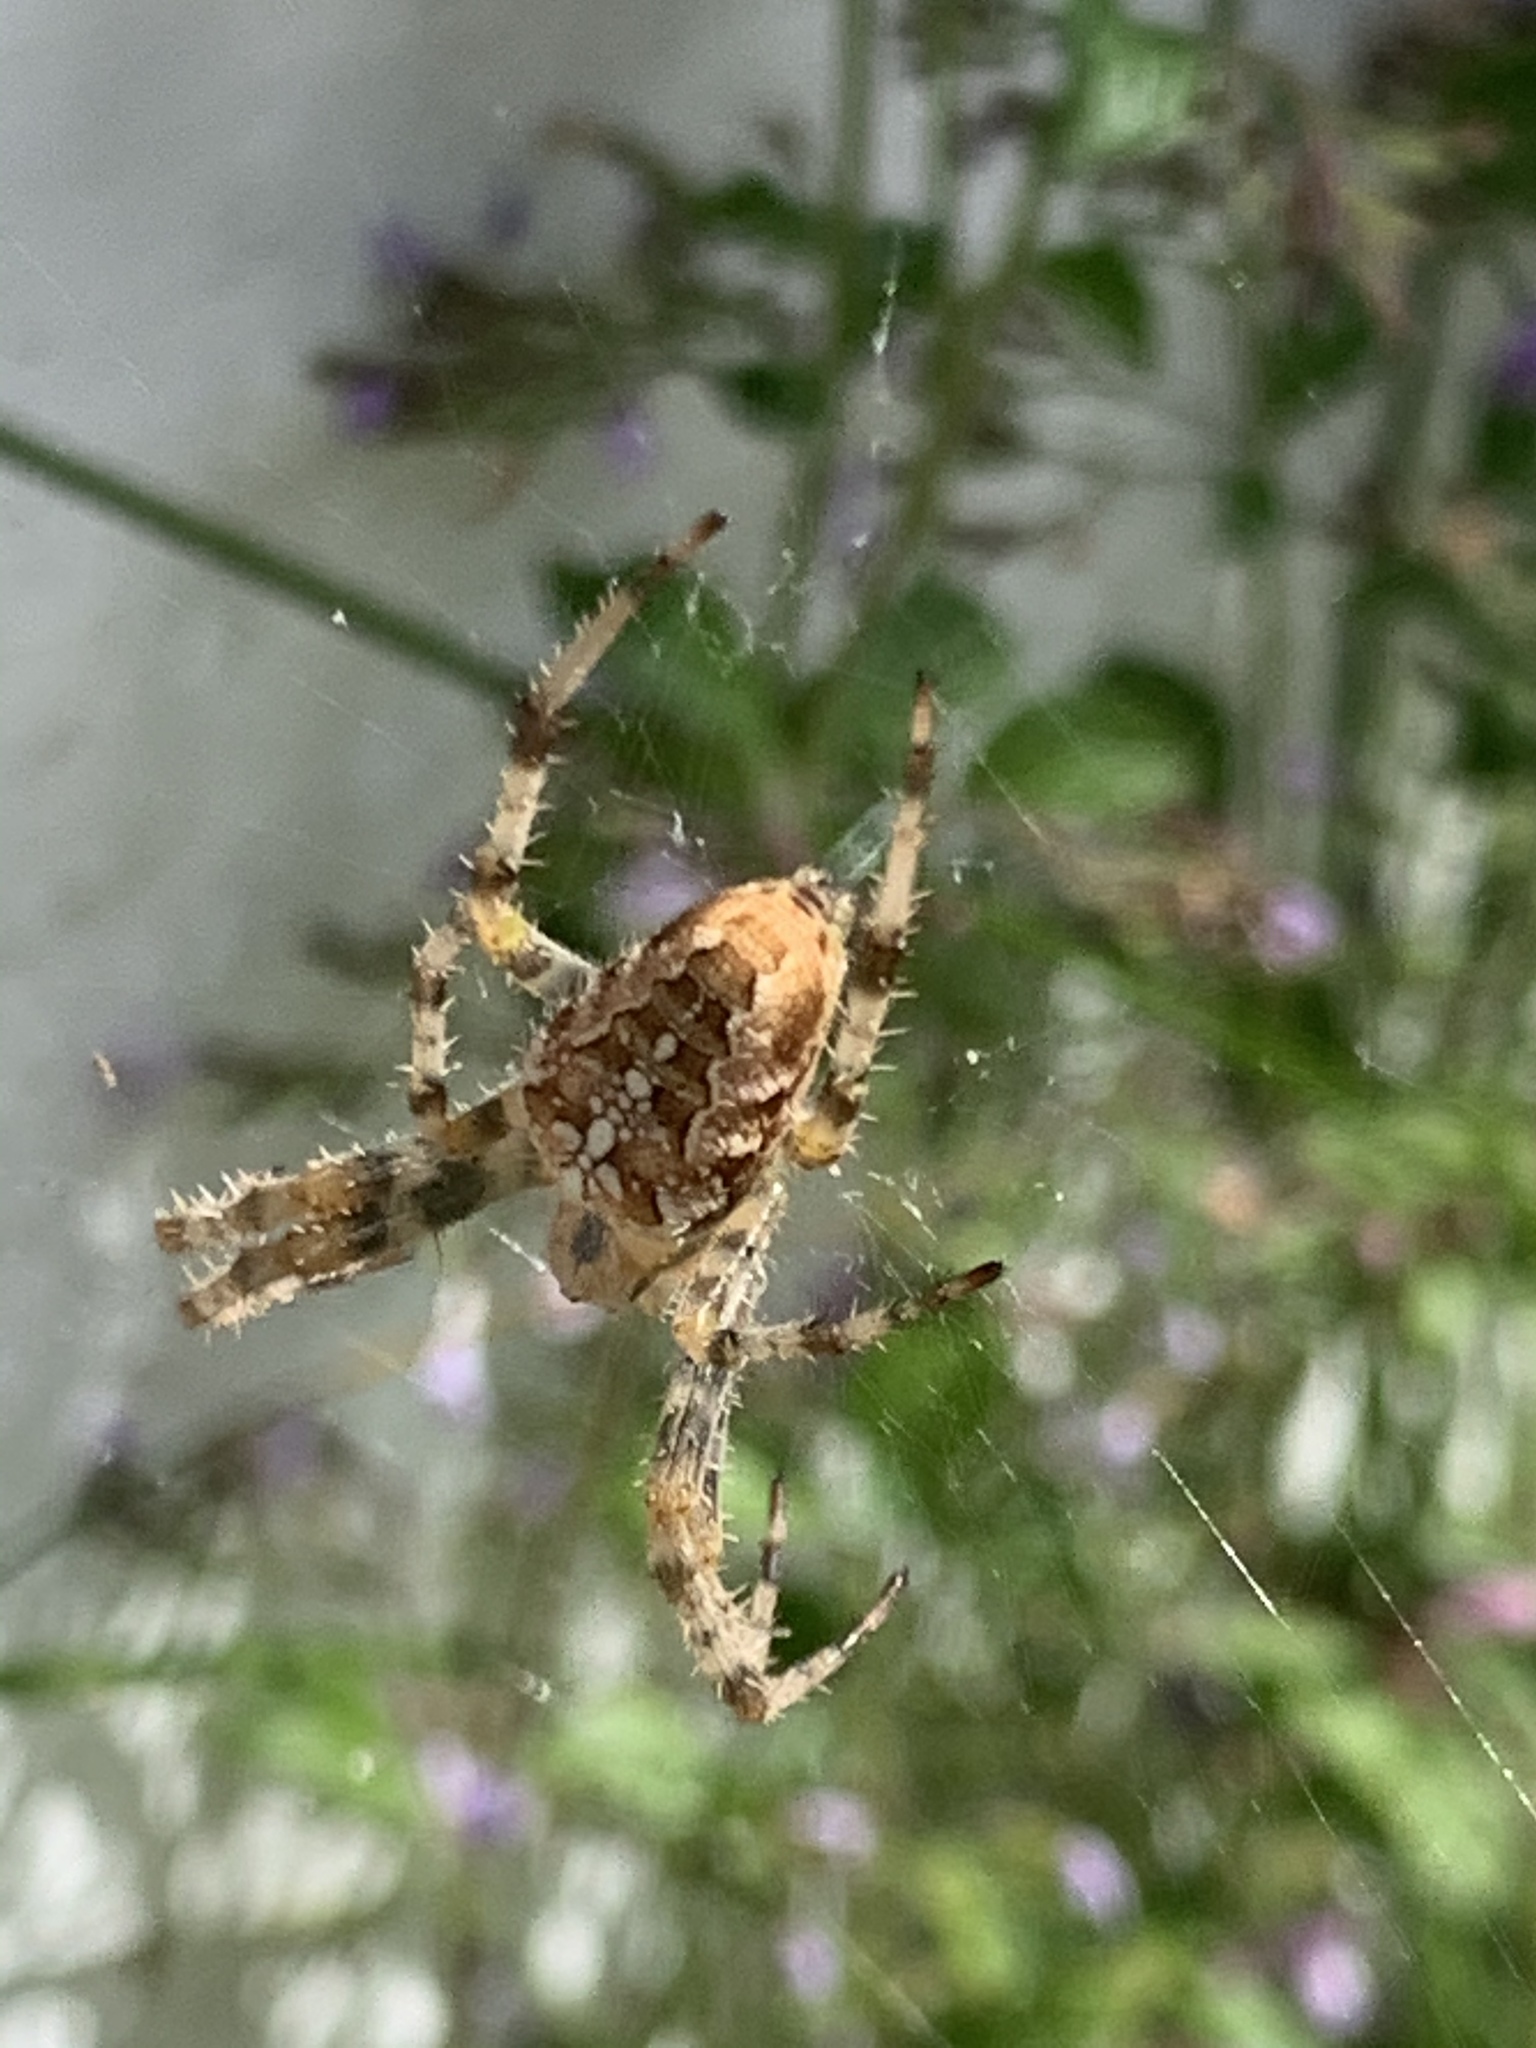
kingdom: Animalia
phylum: Arthropoda
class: Arachnida
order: Araneae
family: Araneidae
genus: Araneus
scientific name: Araneus diadematus
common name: Cross orbweaver
